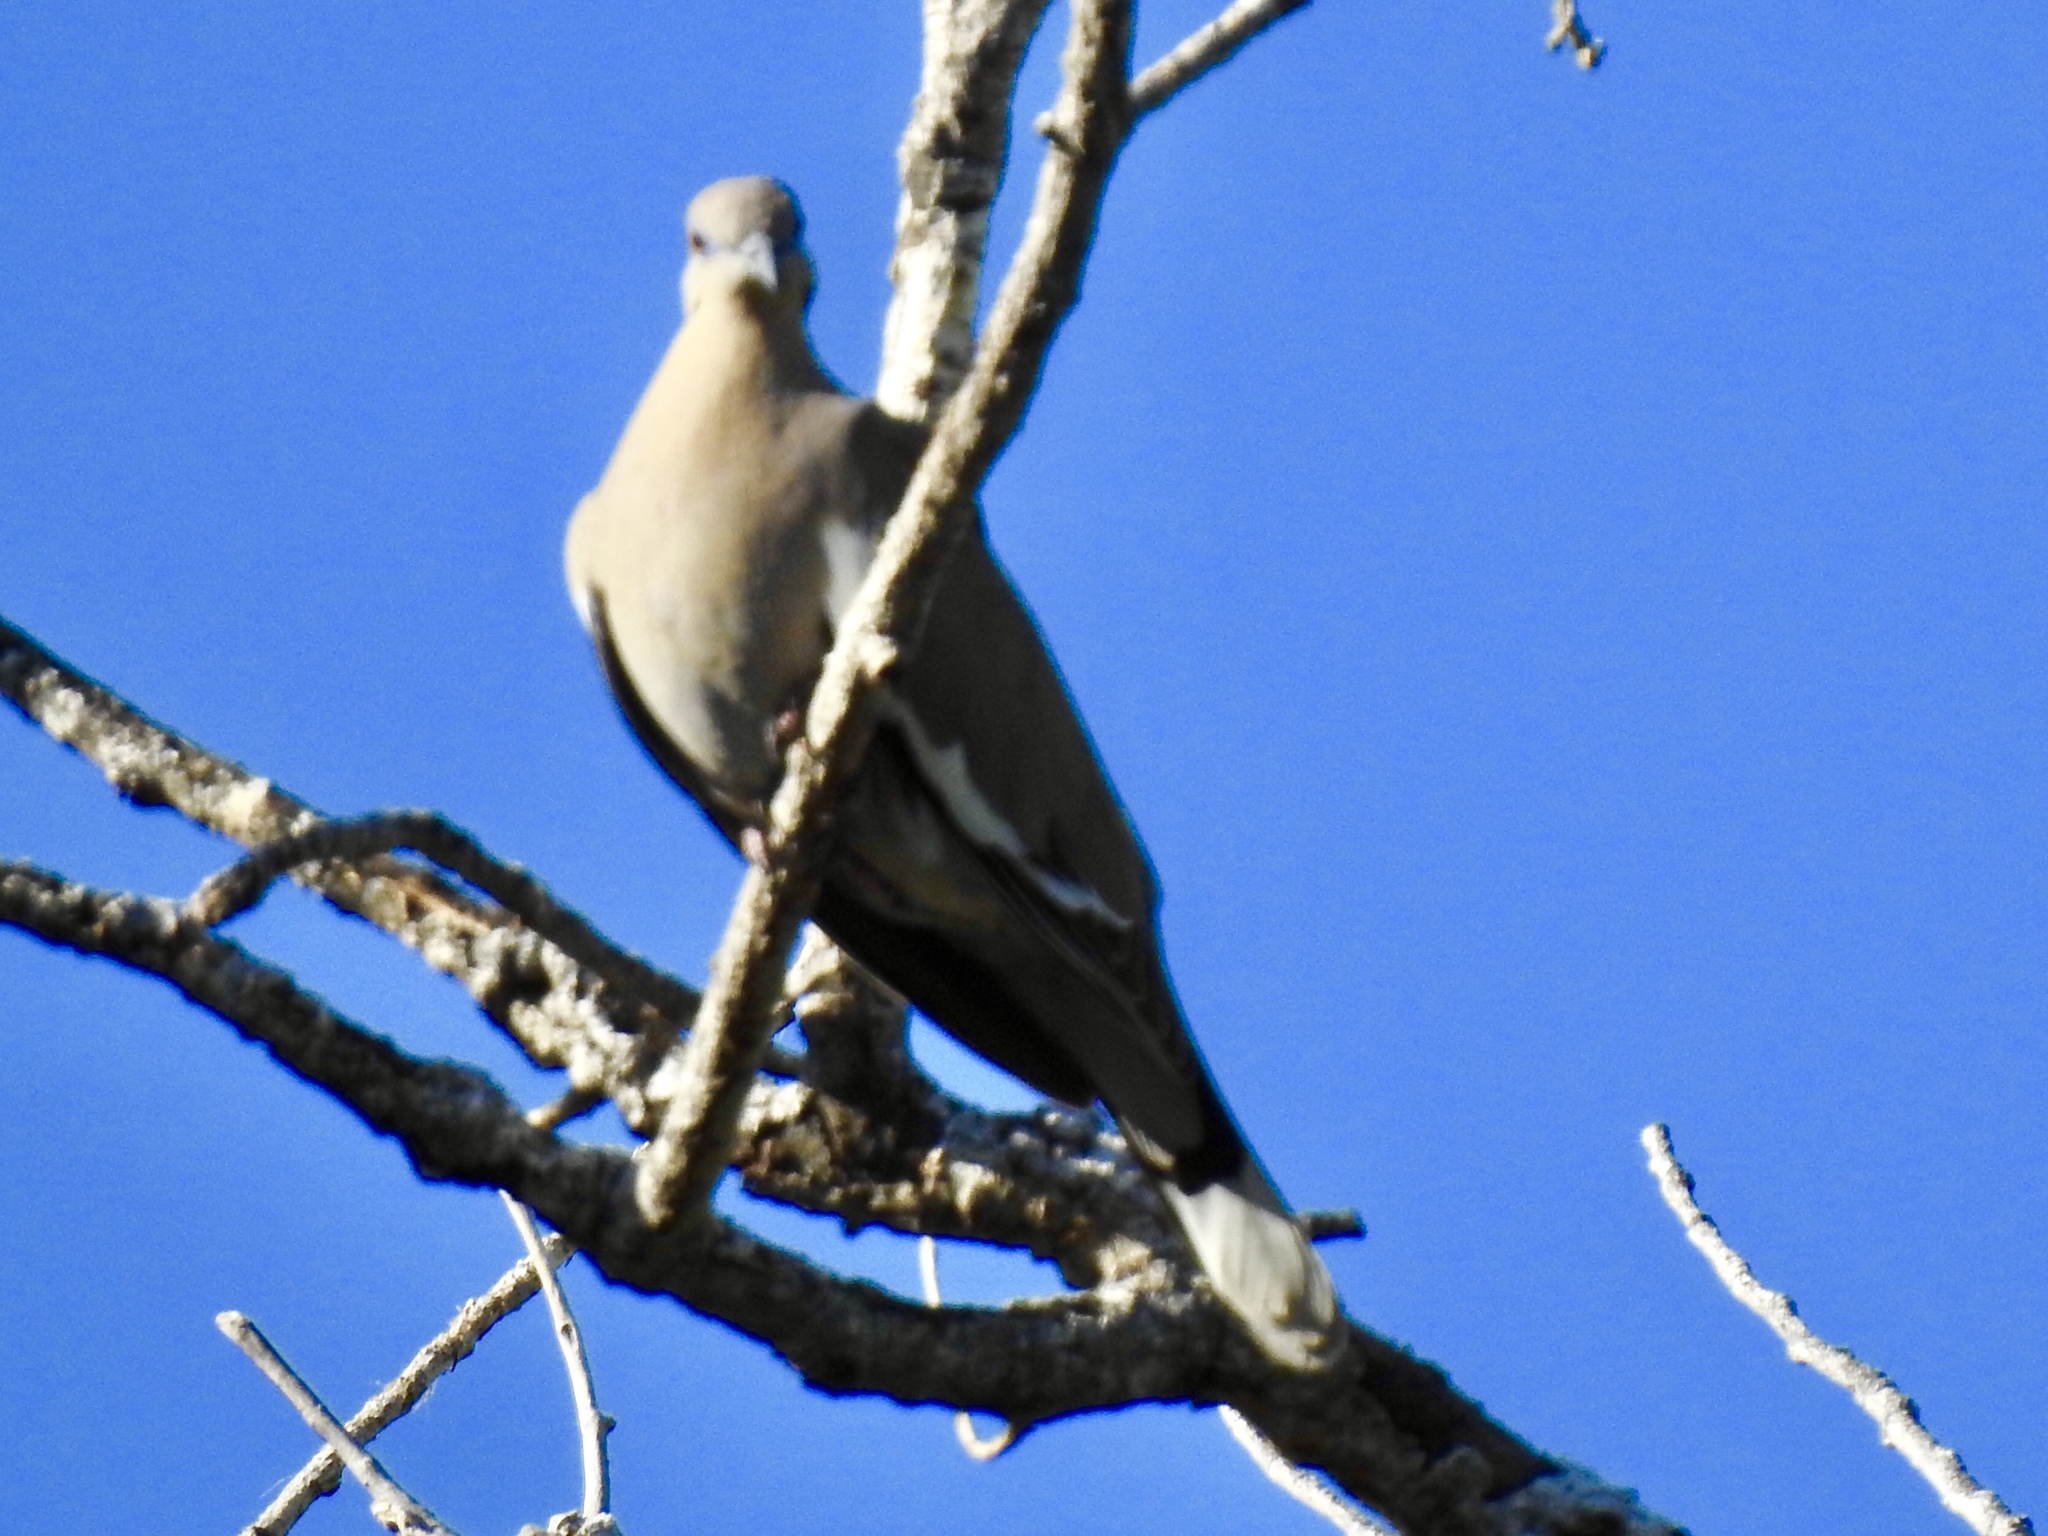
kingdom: Animalia
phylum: Chordata
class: Aves
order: Columbiformes
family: Columbidae
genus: Zenaida
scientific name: Zenaida asiatica
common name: White-winged dove
